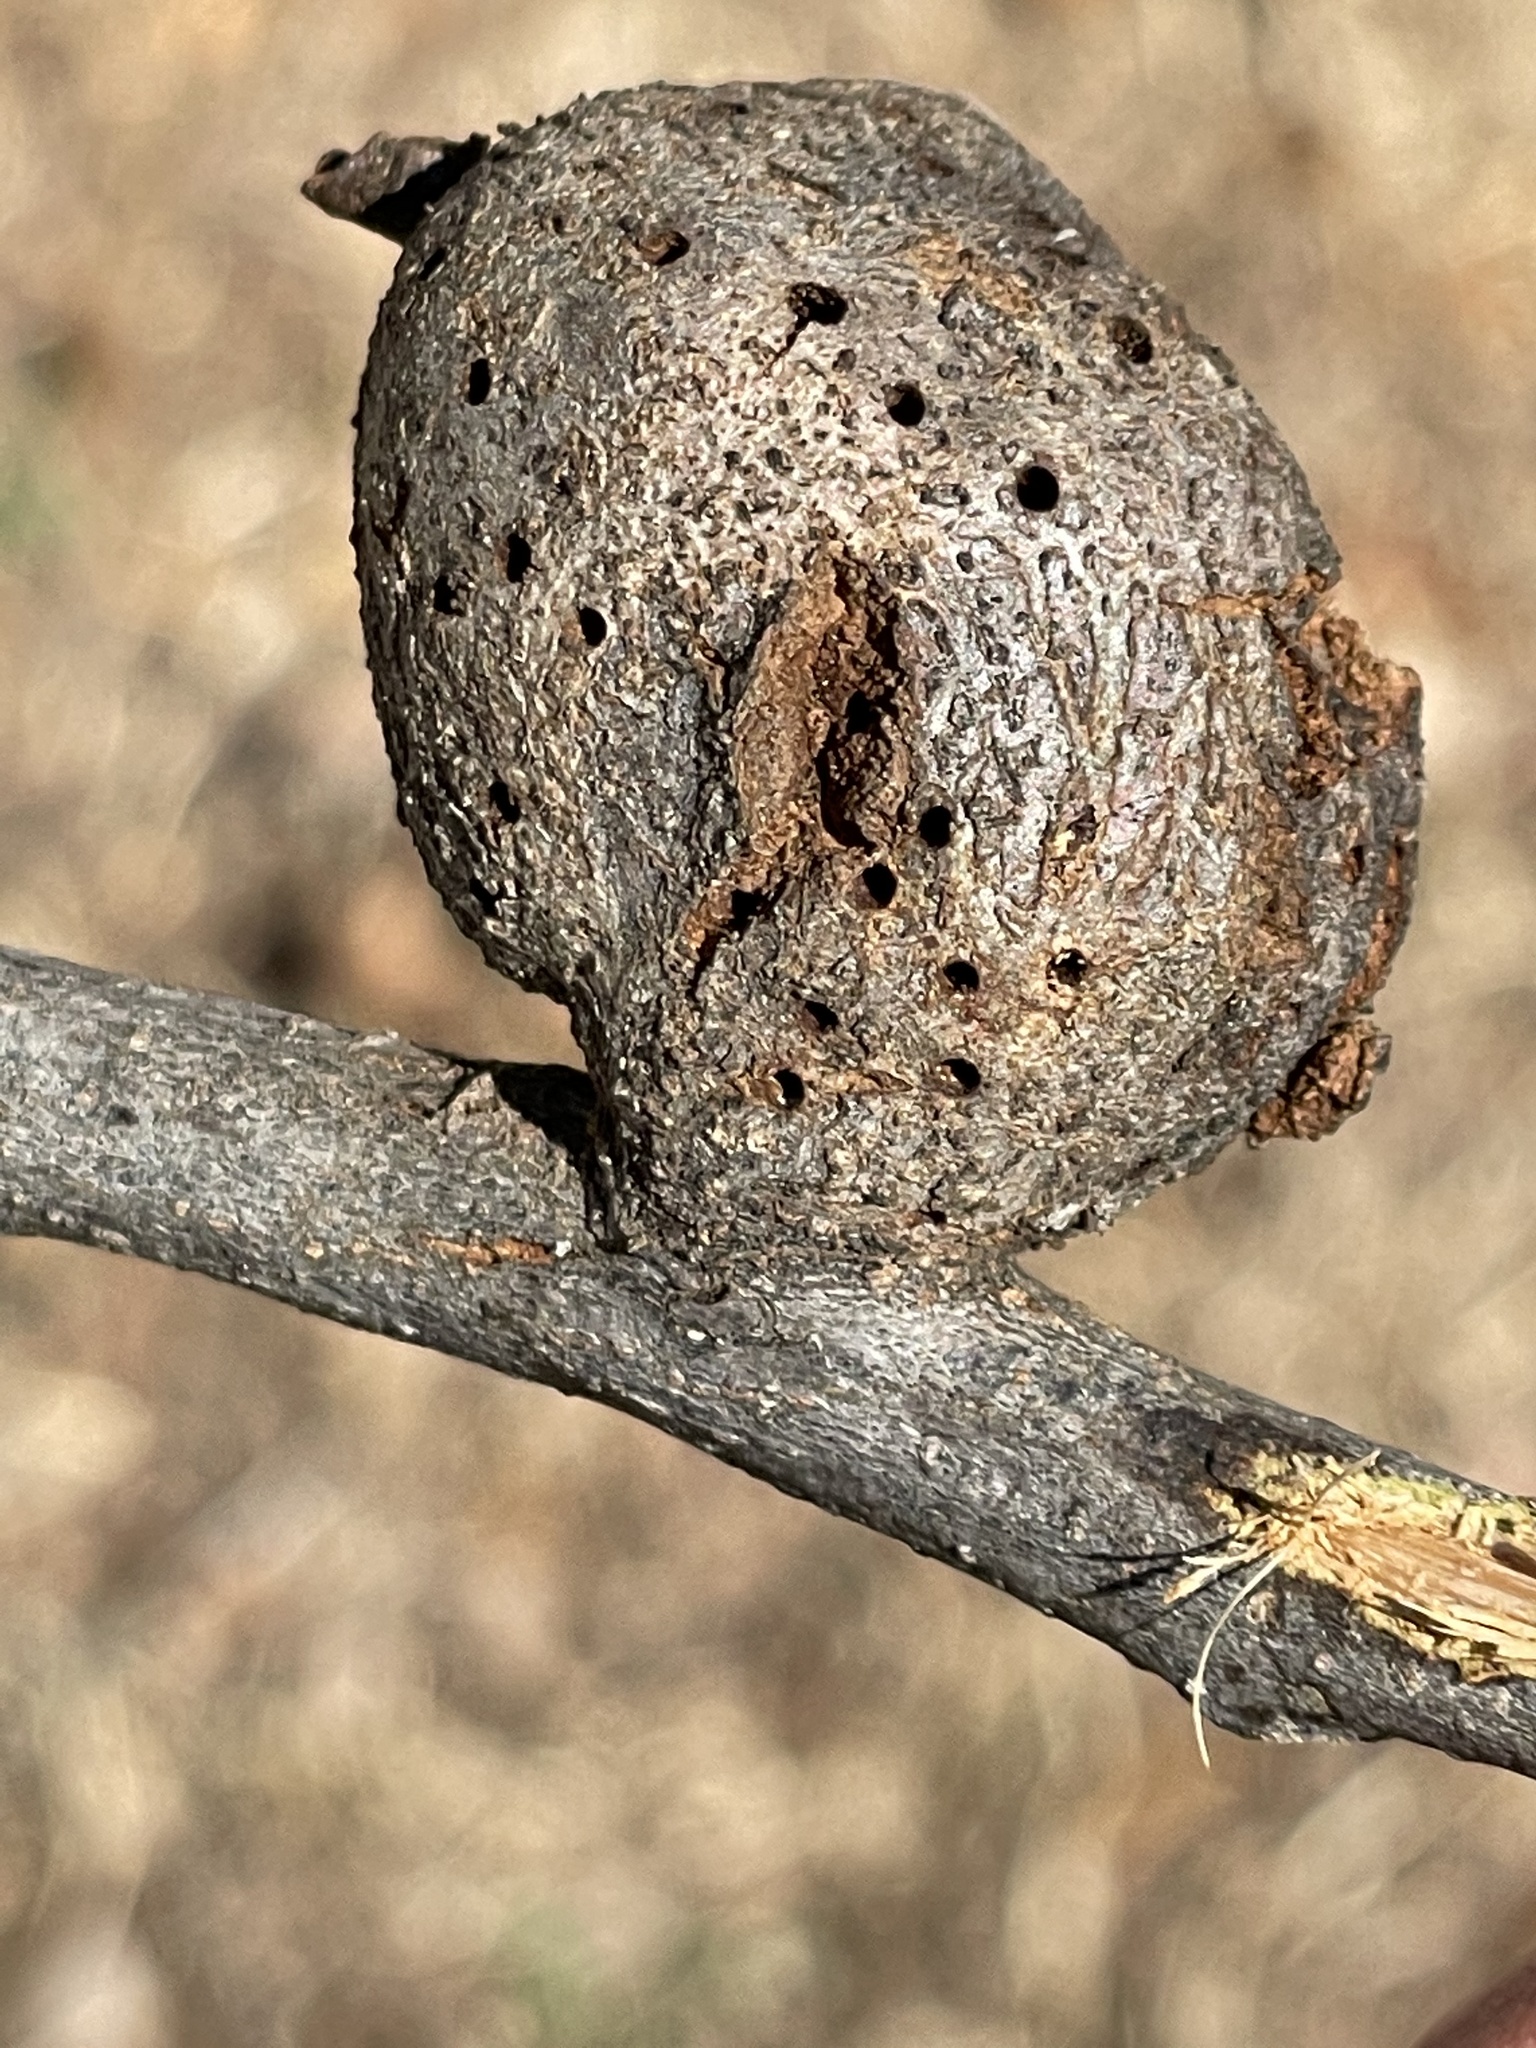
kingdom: Animalia
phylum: Arthropoda
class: Insecta
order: Hymenoptera
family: Cynipidae
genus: Callirhytis
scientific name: Callirhytis
